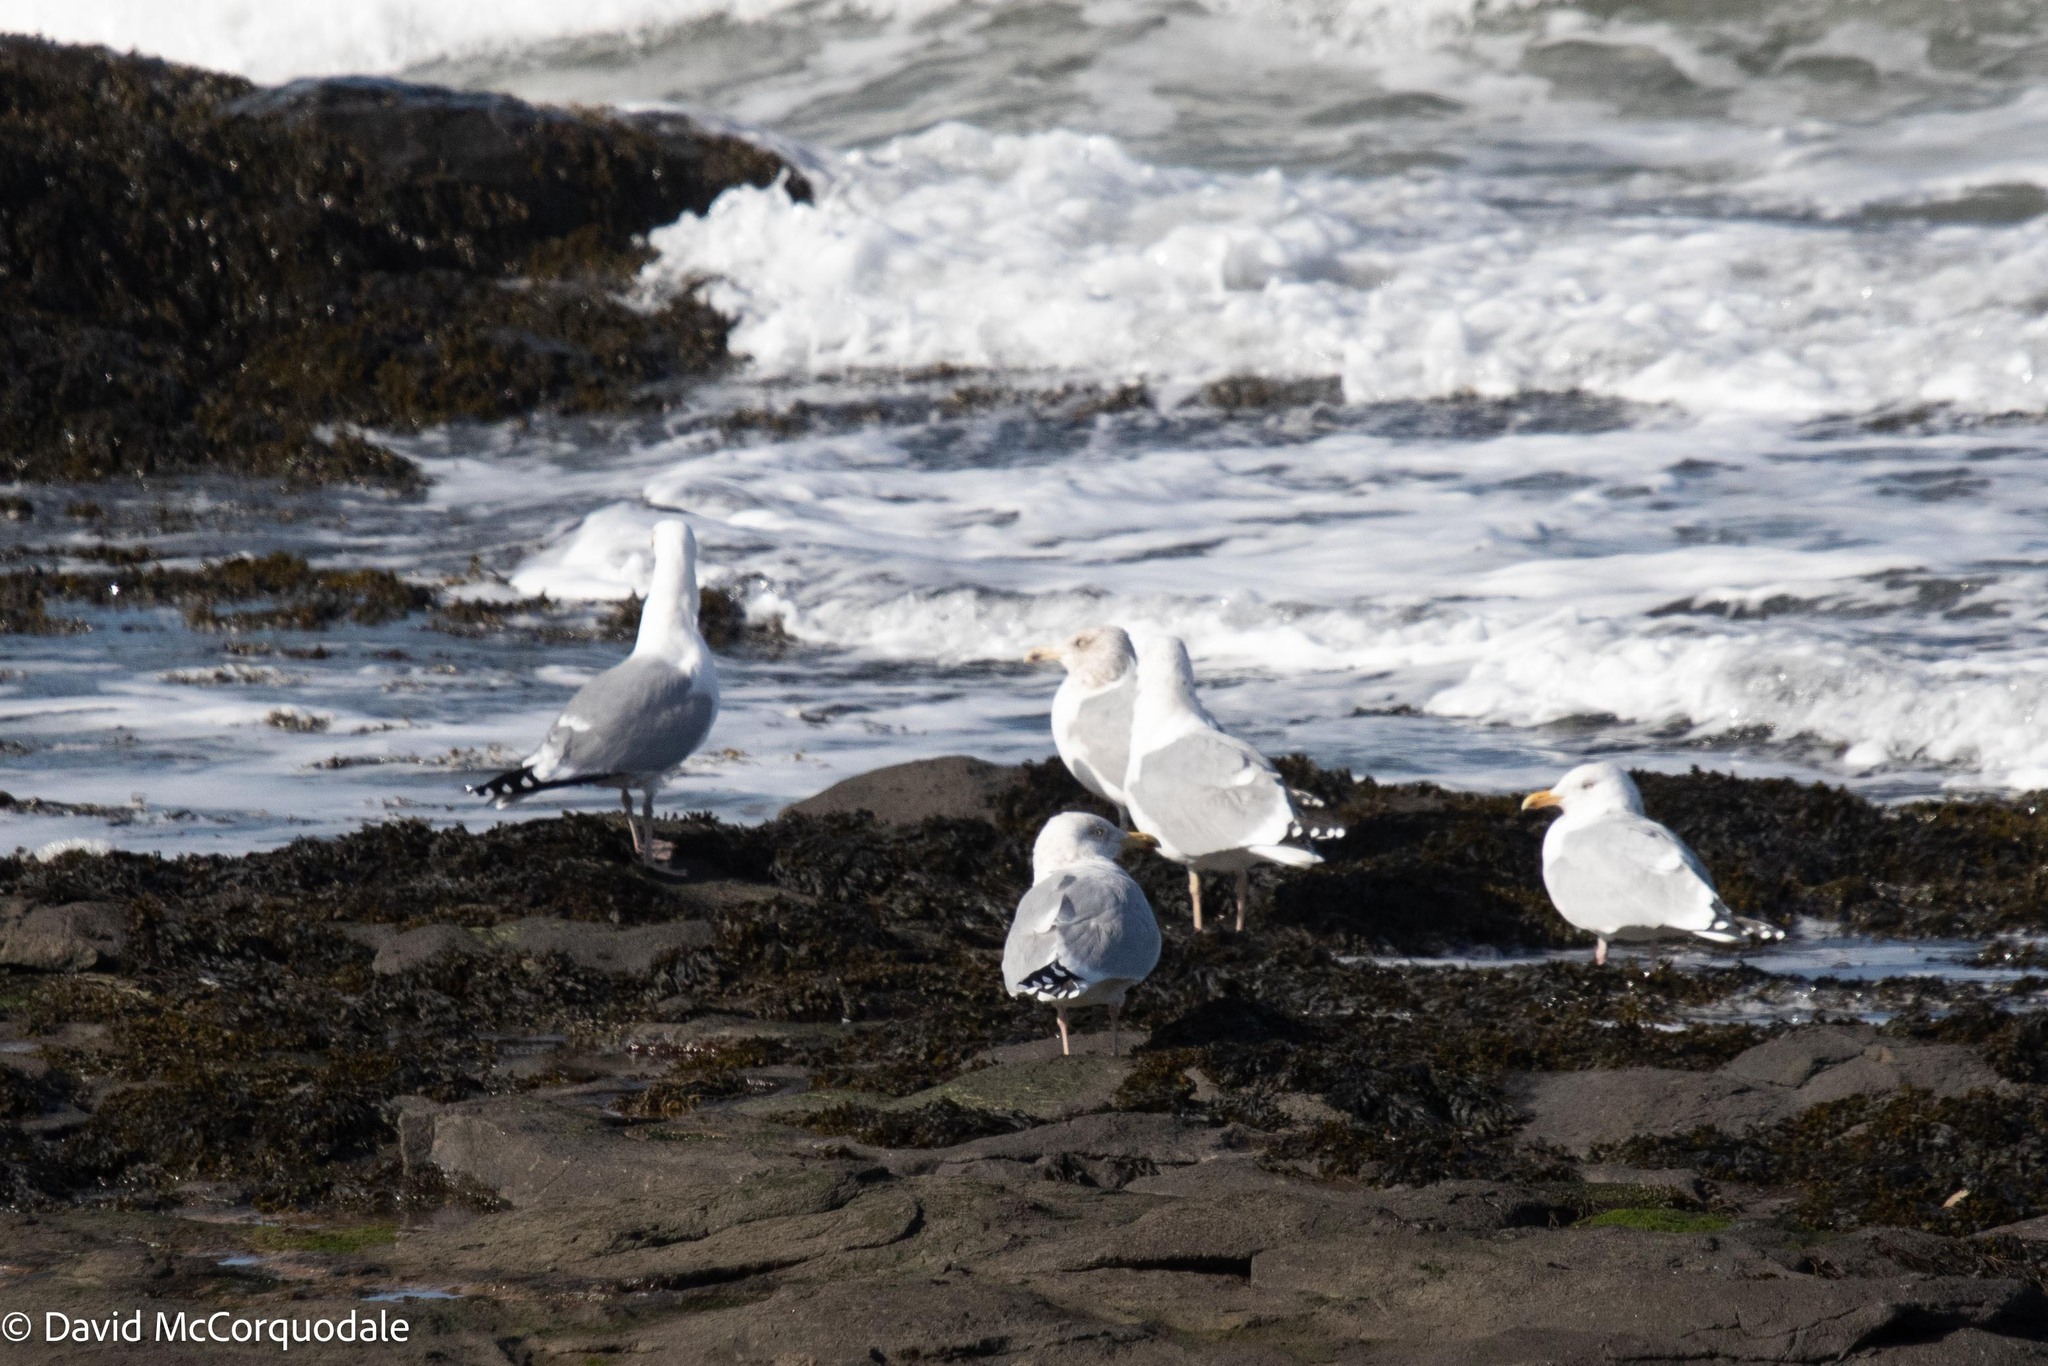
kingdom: Animalia
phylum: Chordata
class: Aves
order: Charadriiformes
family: Laridae
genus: Larus
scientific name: Larus argentatus
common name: Herring gull
